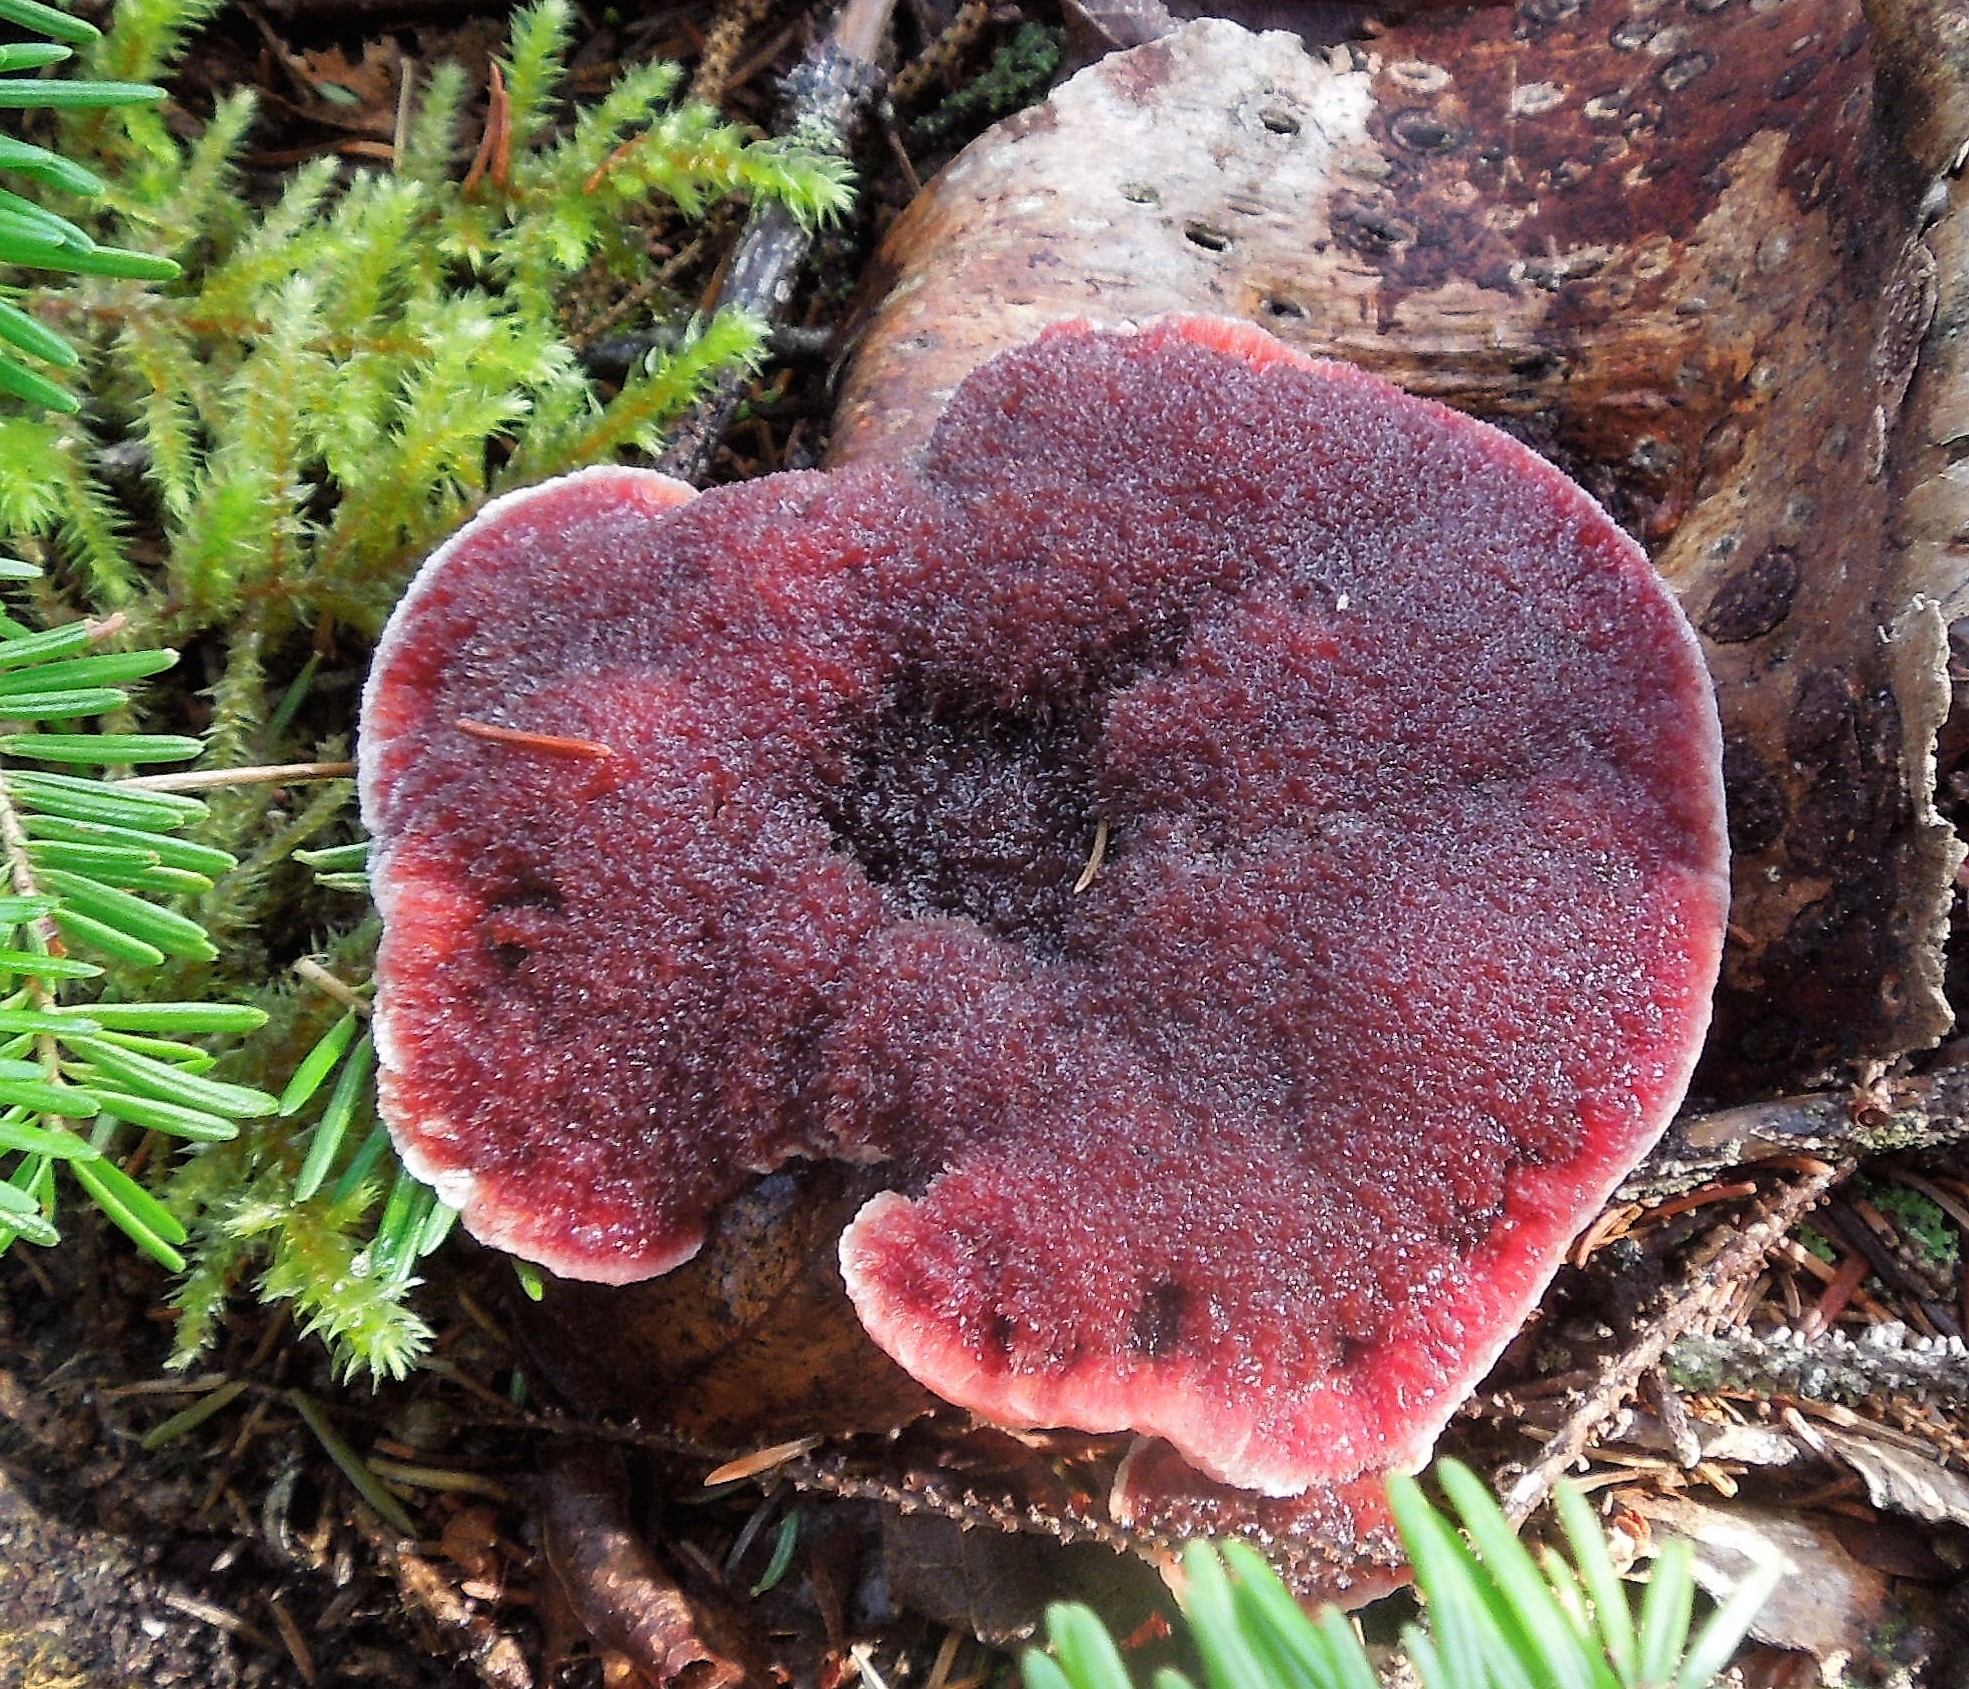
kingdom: Fungi
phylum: Basidiomycota
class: Agaricomycetes
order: Thelephorales
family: Bankeraceae
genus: Hydnellum
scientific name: Hydnellum peckii
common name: Devil's tooth
